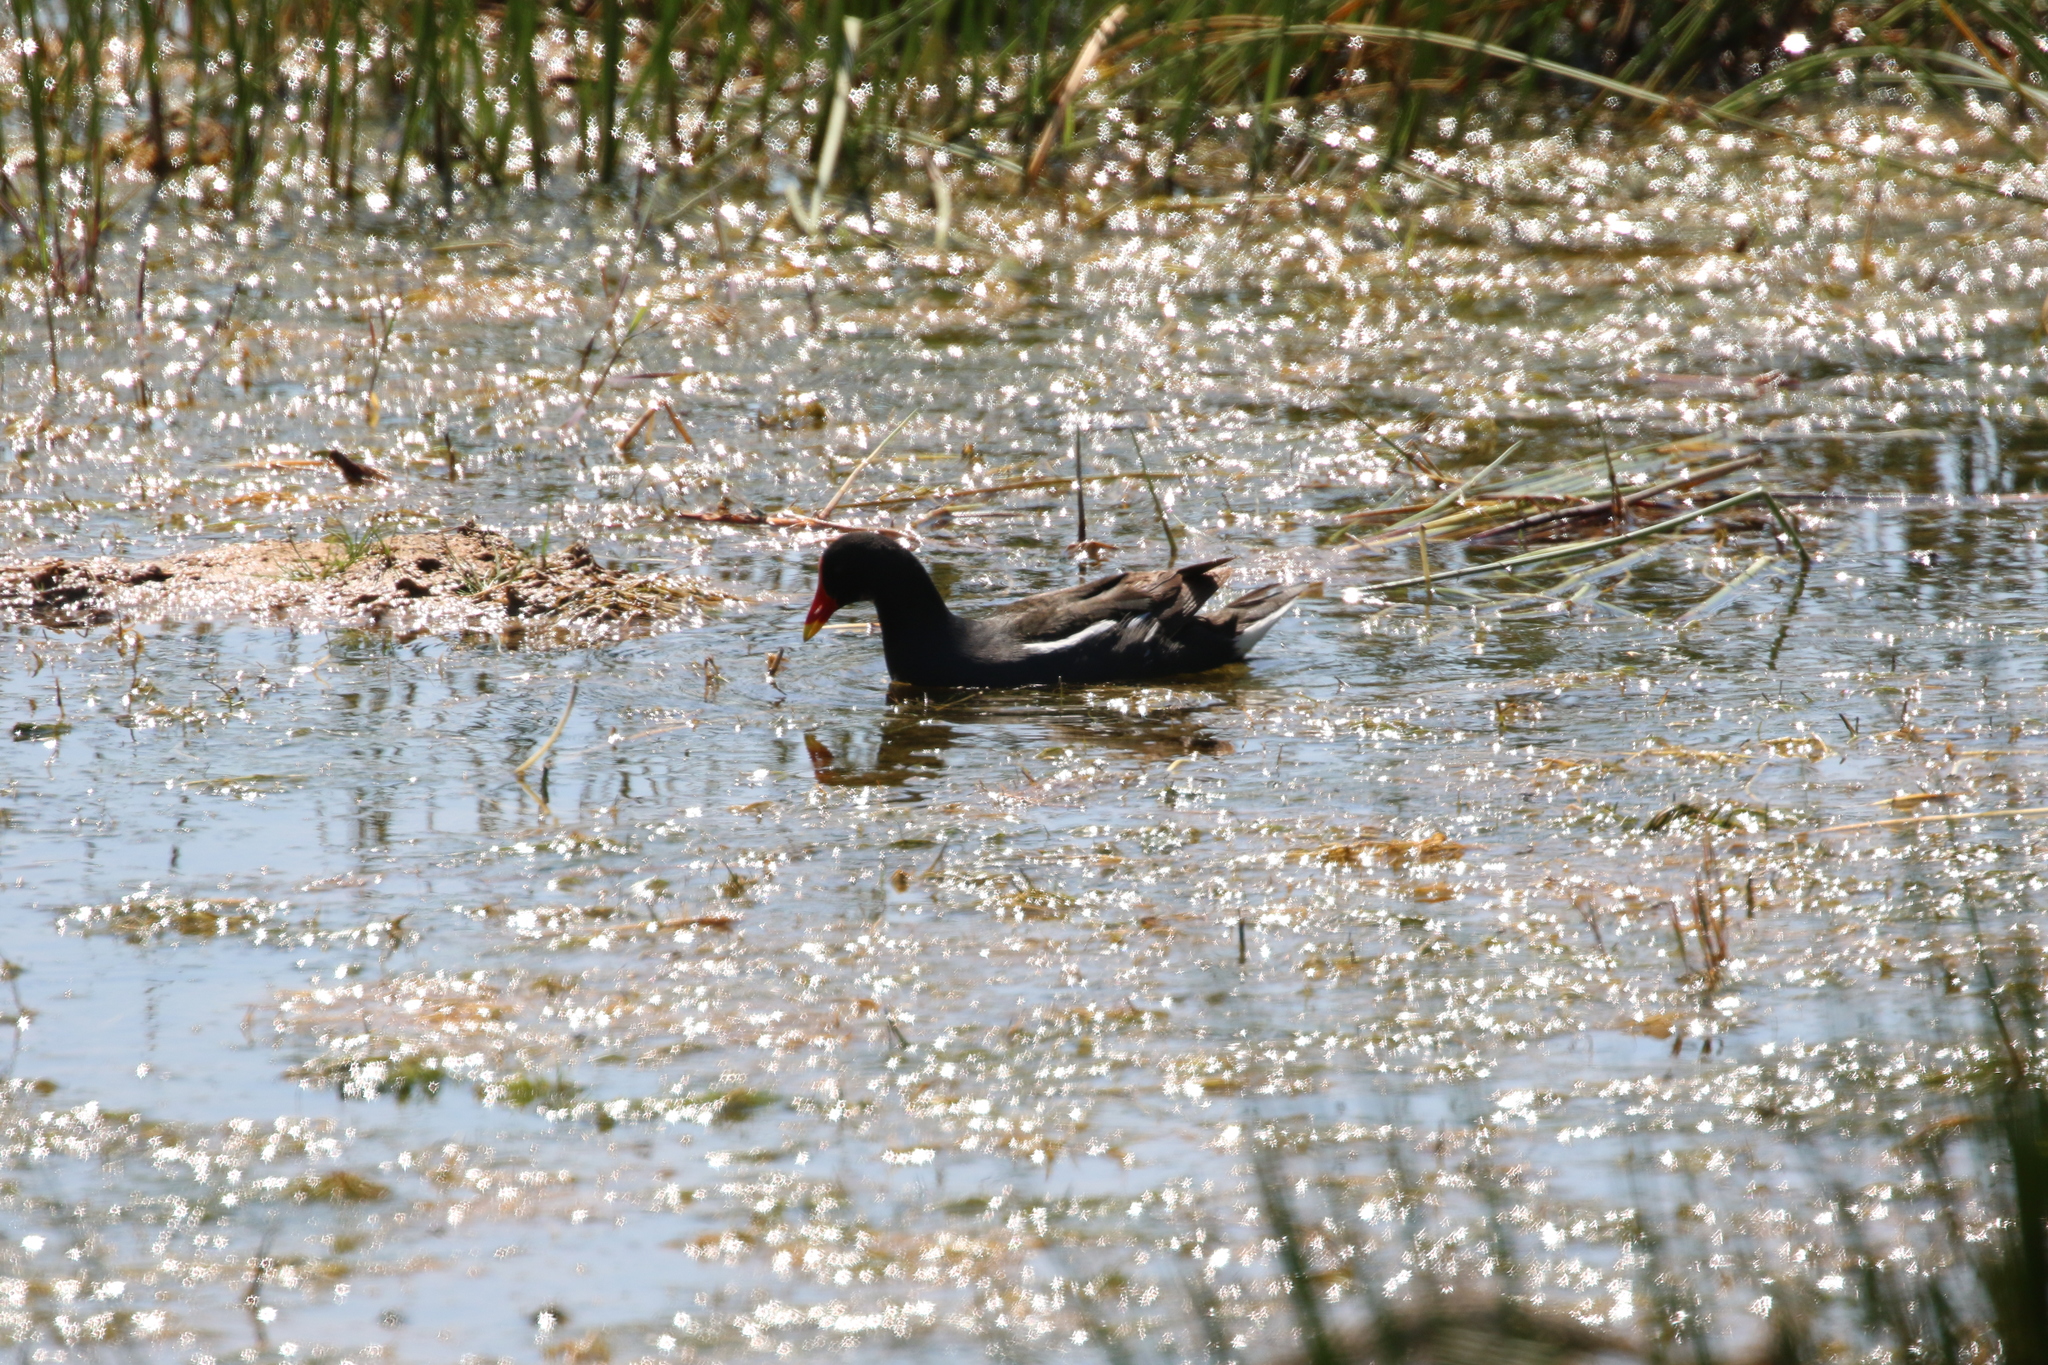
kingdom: Animalia
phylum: Chordata
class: Aves
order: Gruiformes
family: Rallidae
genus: Gallinula
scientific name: Gallinula chloropus
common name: Common moorhen
